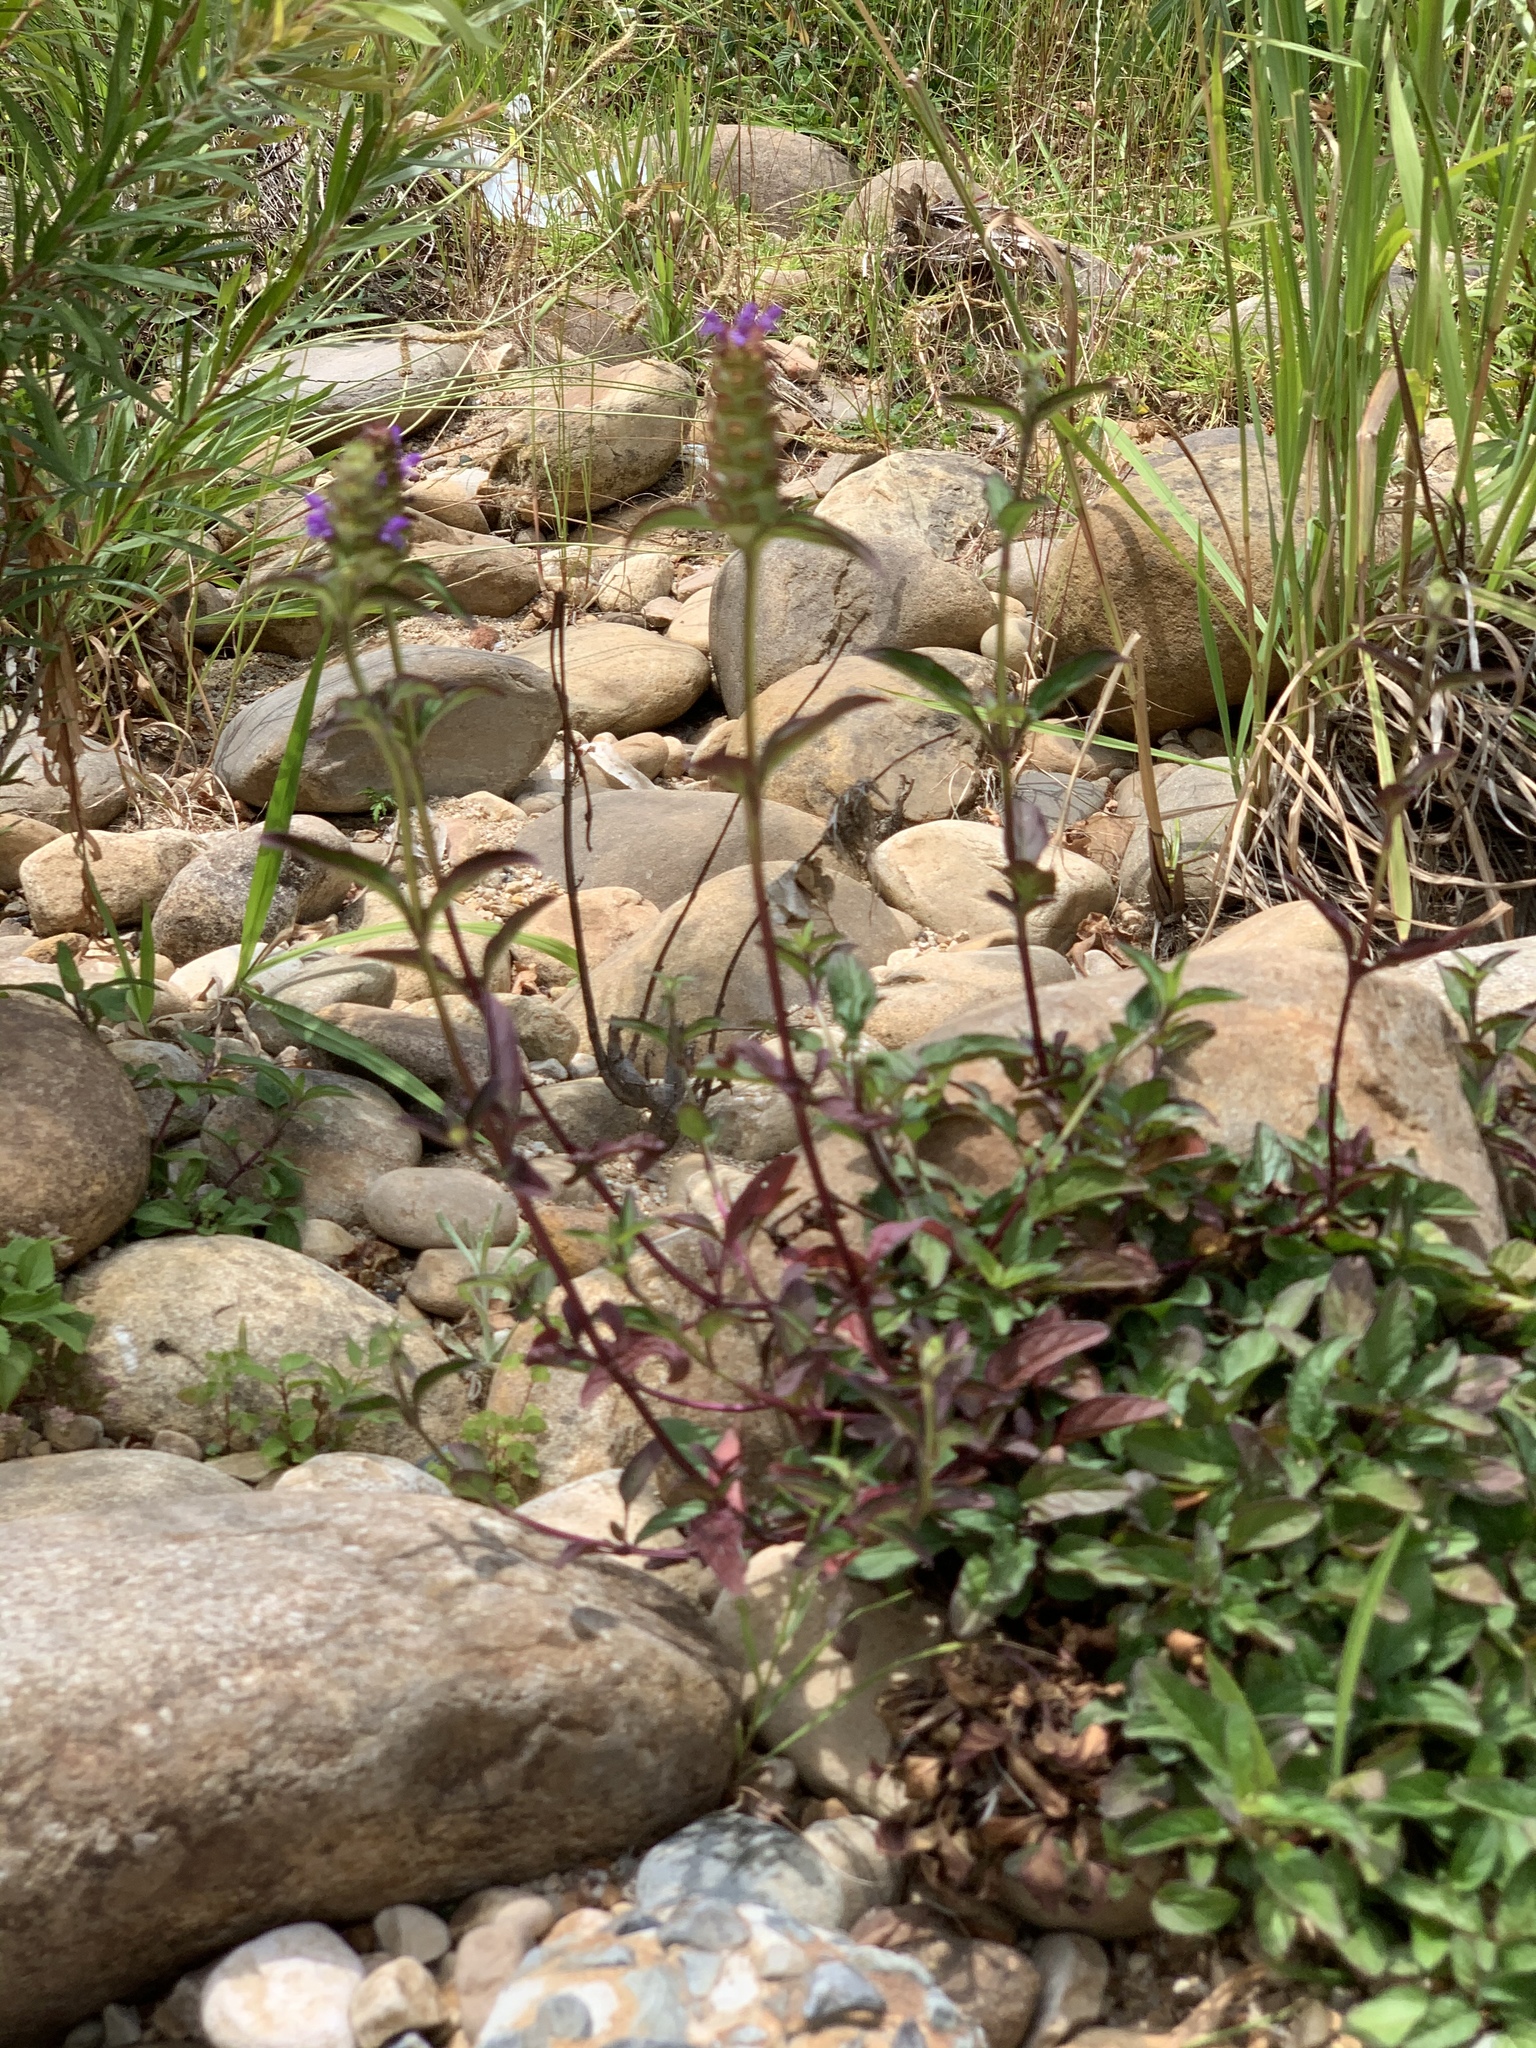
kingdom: Plantae
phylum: Tracheophyta
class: Magnoliopsida
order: Lamiales
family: Lamiaceae
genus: Prunella
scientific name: Prunella vulgaris
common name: Heal-all
